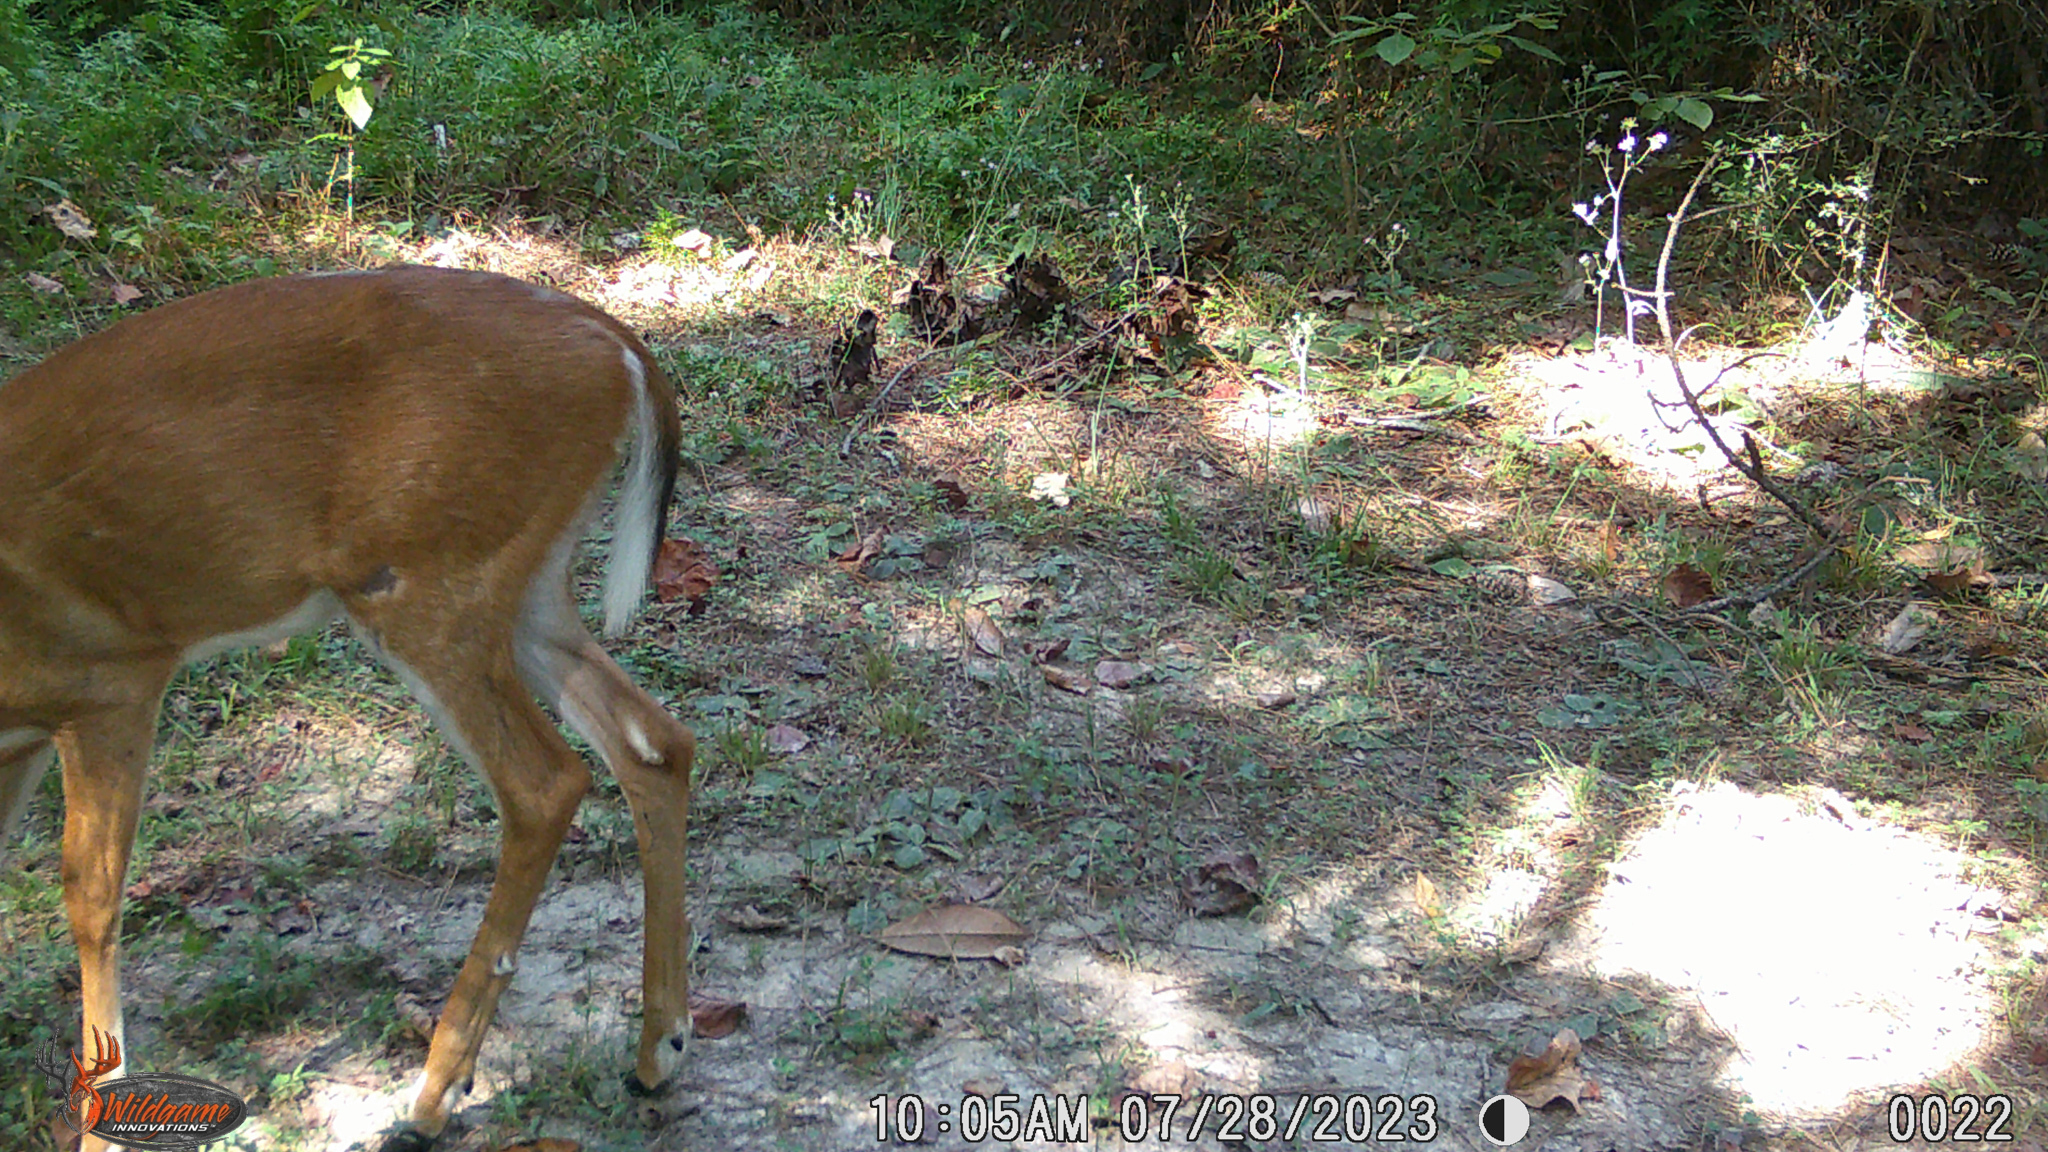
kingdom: Animalia
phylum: Chordata
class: Mammalia
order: Artiodactyla
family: Cervidae
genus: Odocoileus
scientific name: Odocoileus virginianus
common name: White-tailed deer
